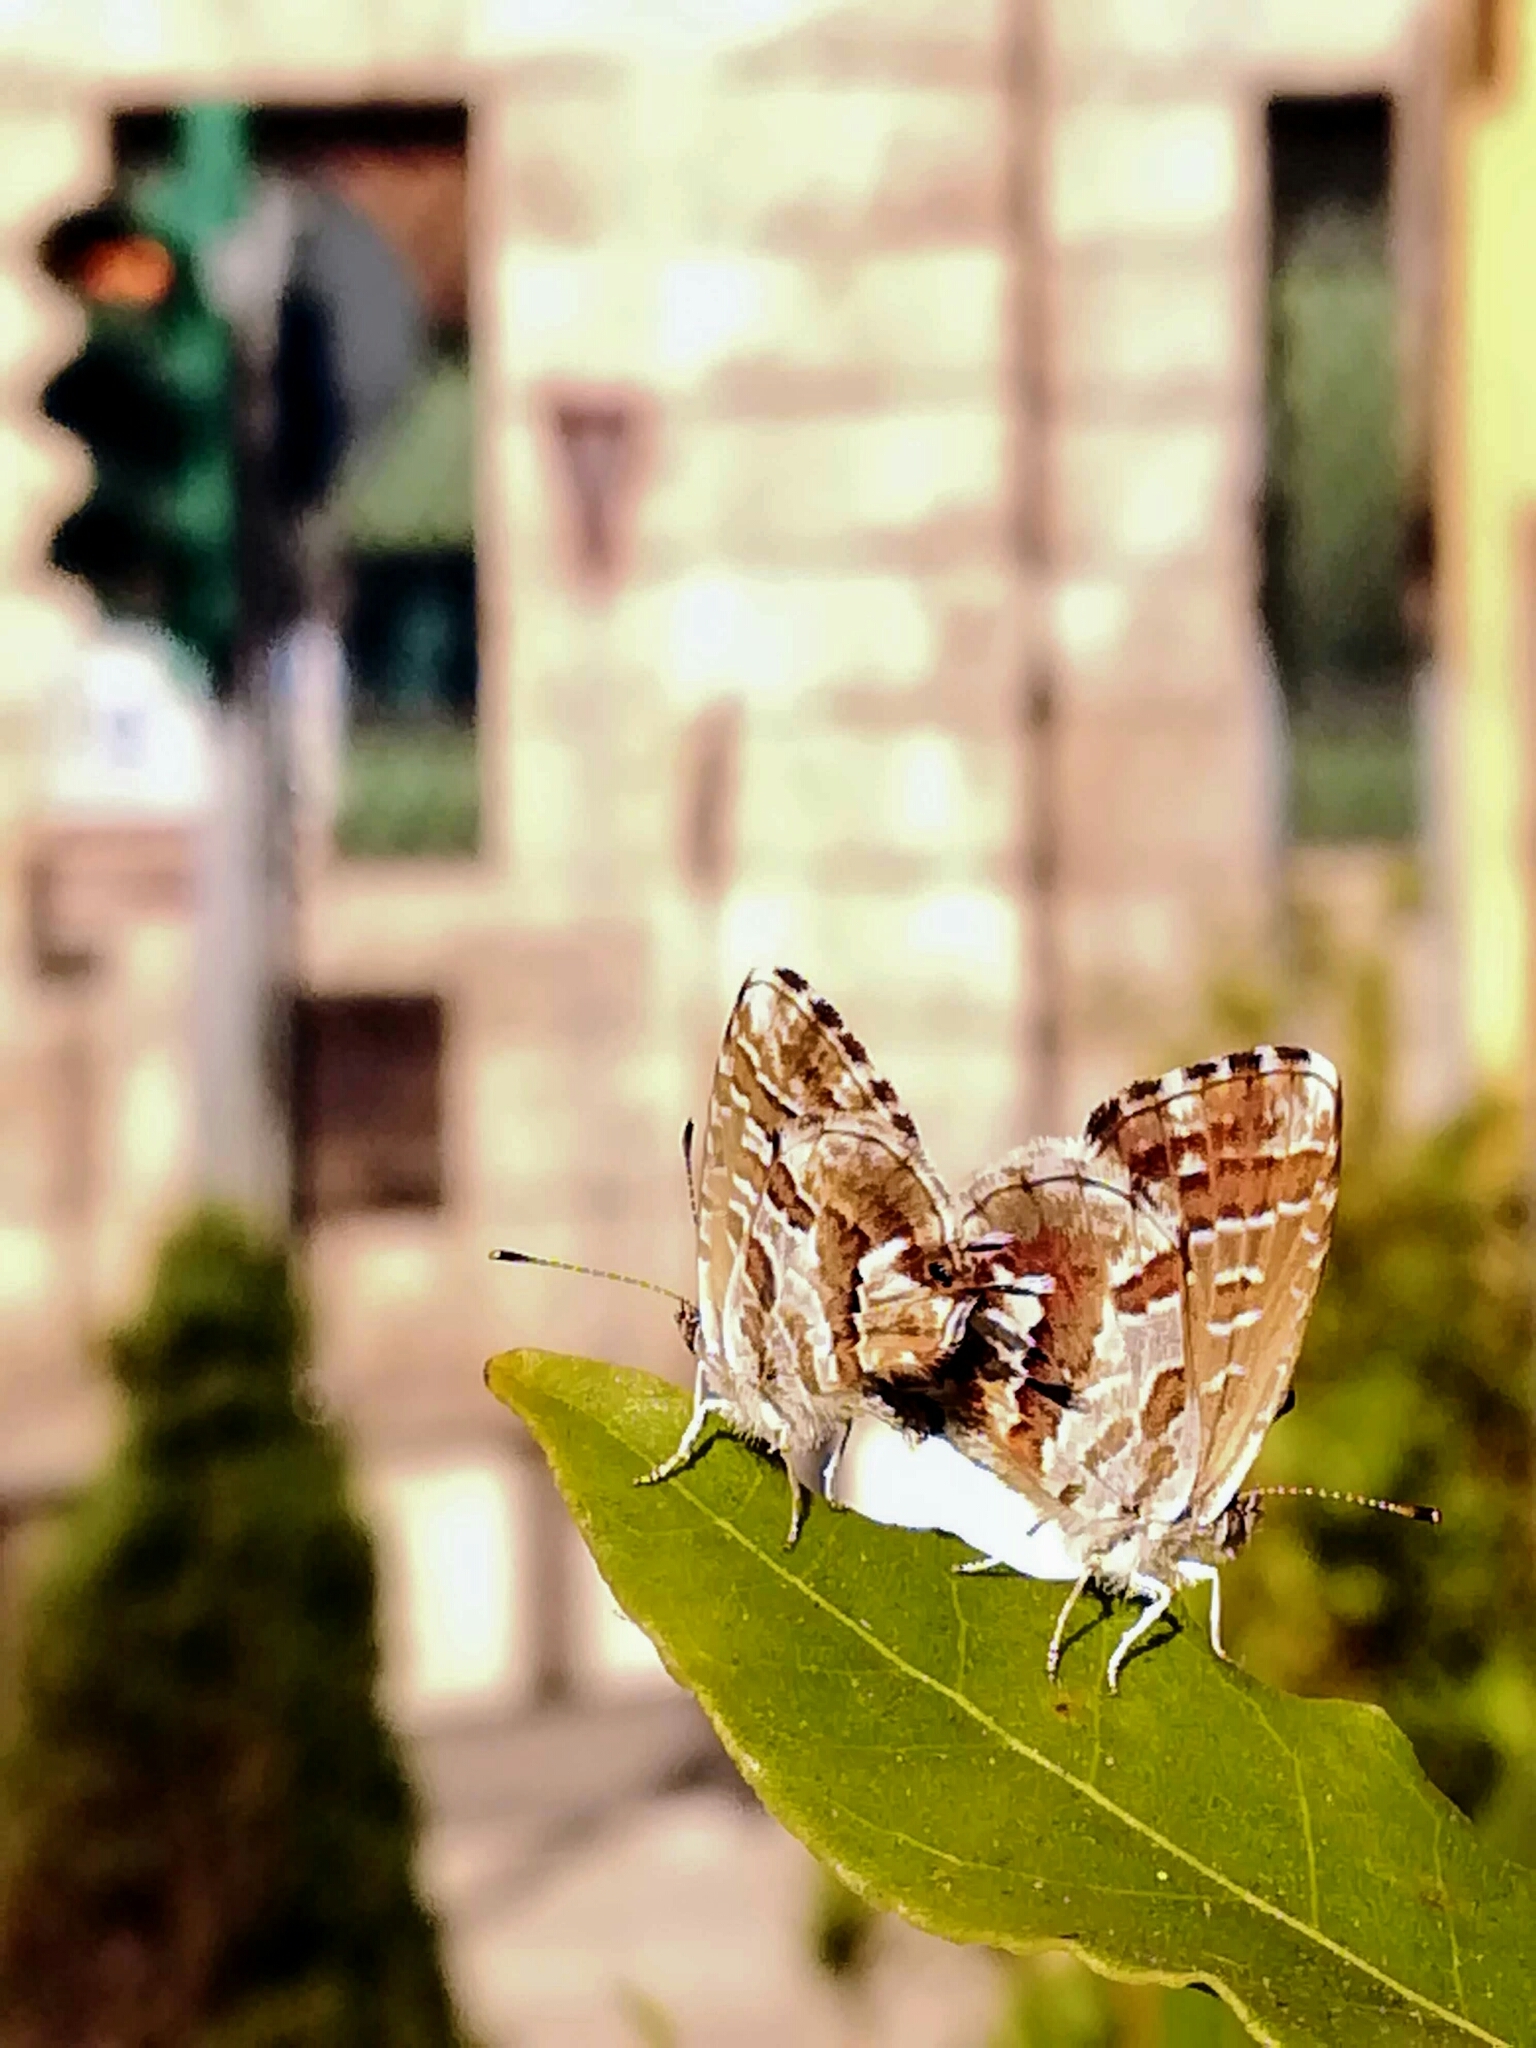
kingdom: Animalia
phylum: Arthropoda
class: Insecta
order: Lepidoptera
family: Lycaenidae
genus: Cacyreus
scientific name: Cacyreus marshalli
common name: Geranium bronze
